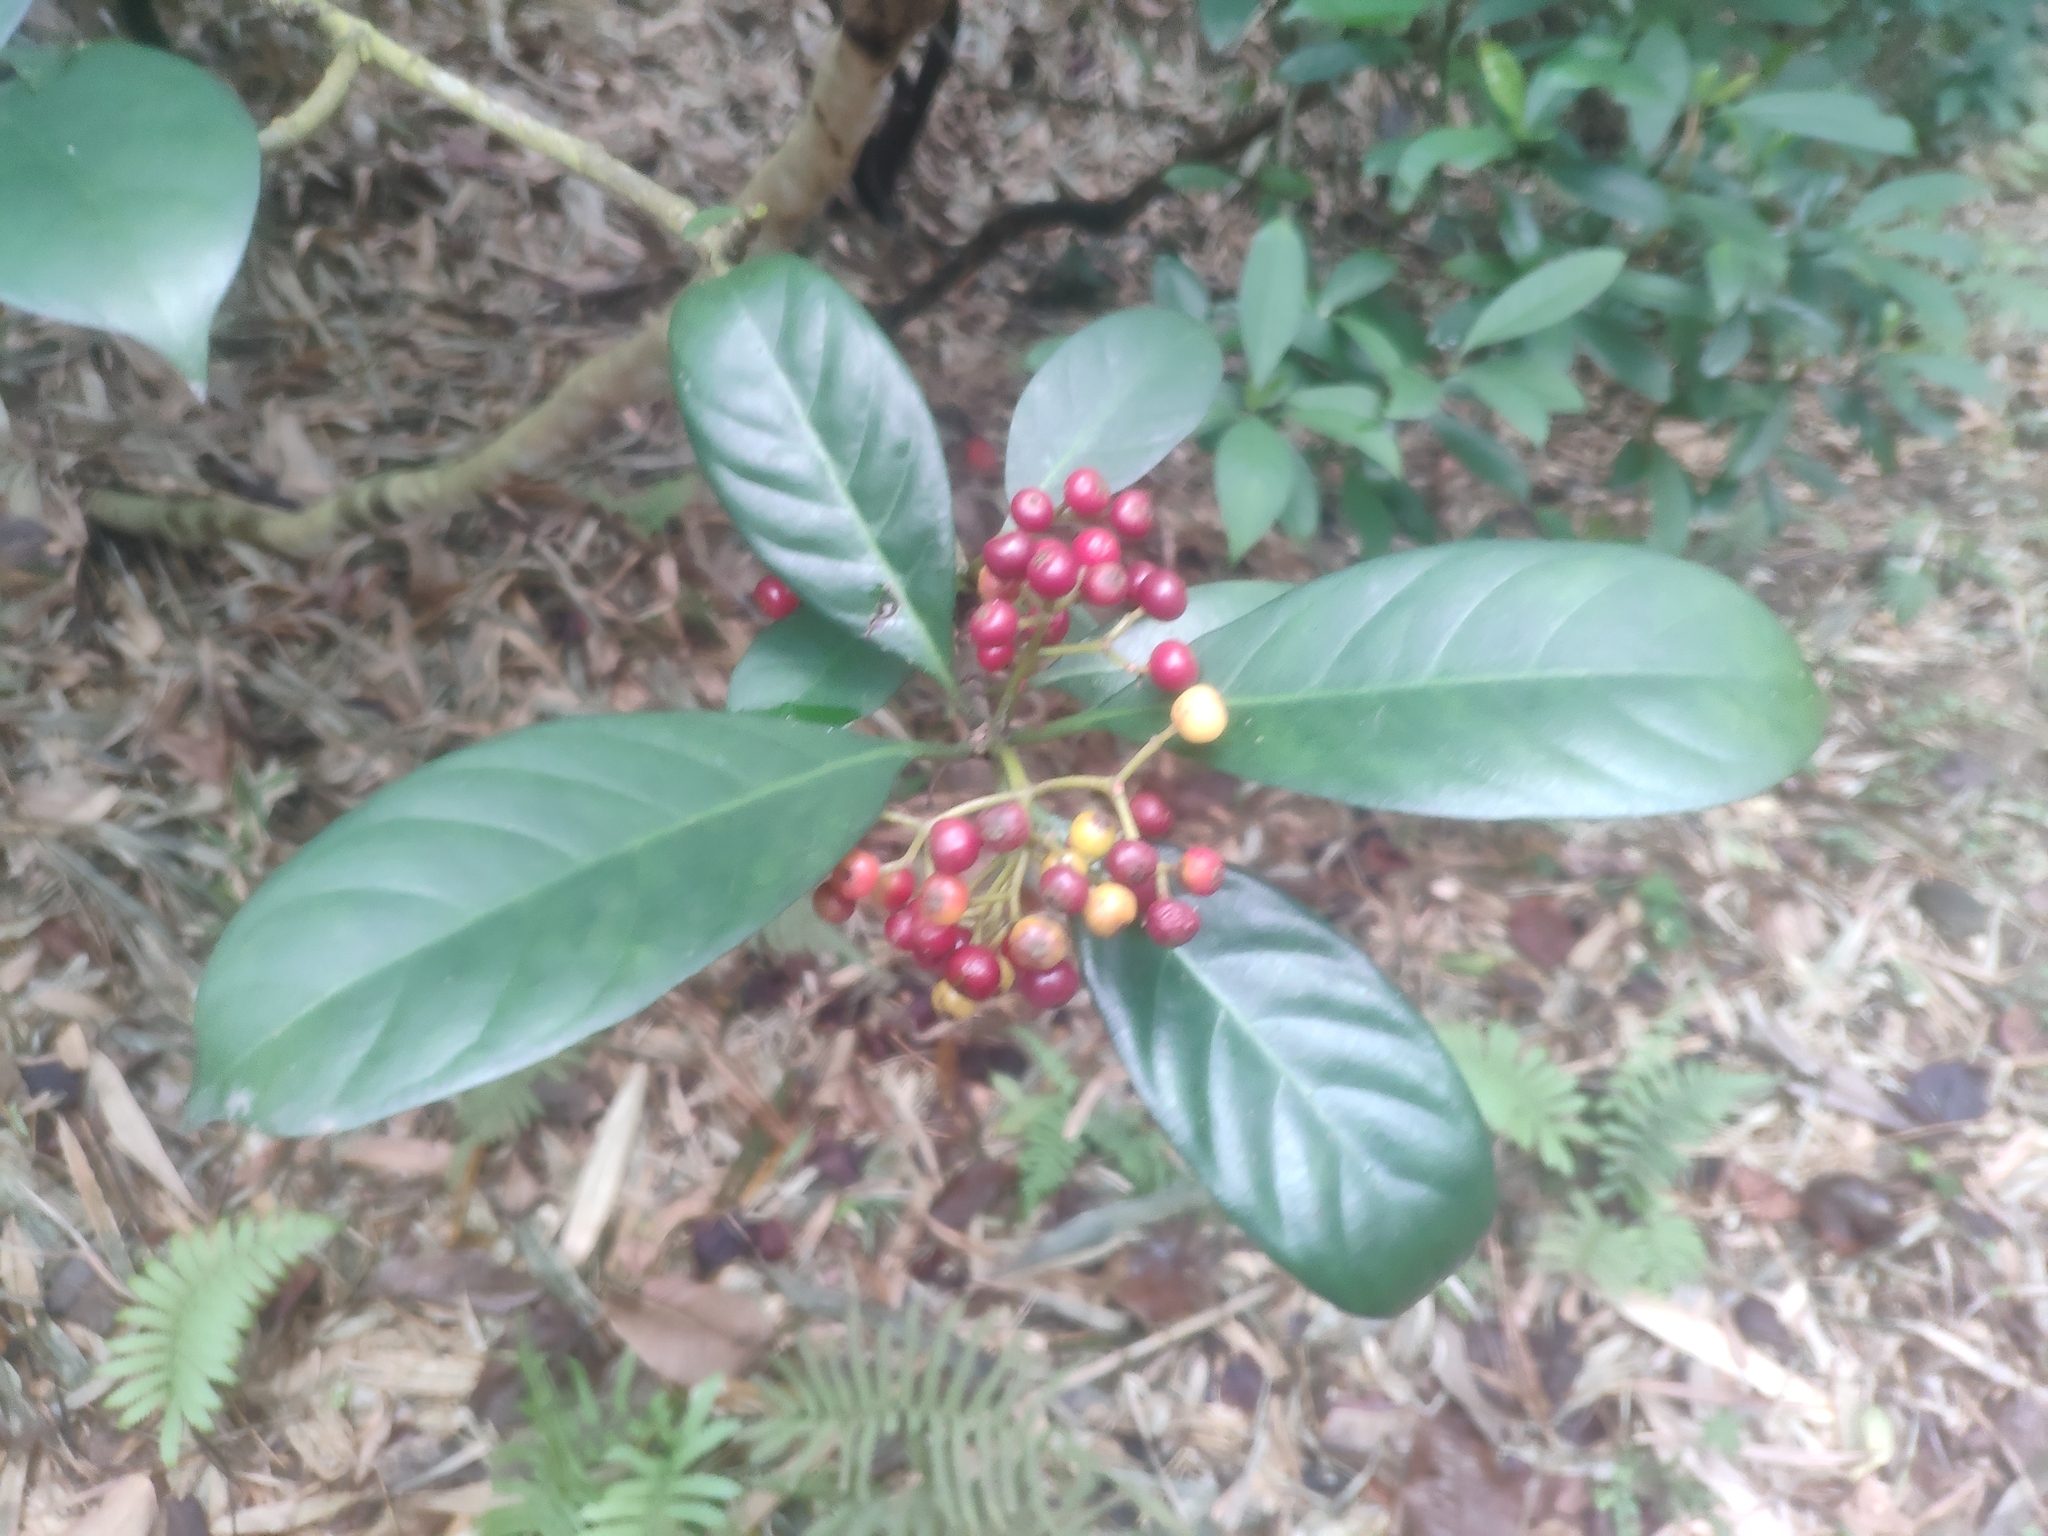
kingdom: Plantae
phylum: Tracheophyta
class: Magnoliopsida
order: Gentianales
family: Rubiaceae
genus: Psychotria
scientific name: Psychotria asiatica
